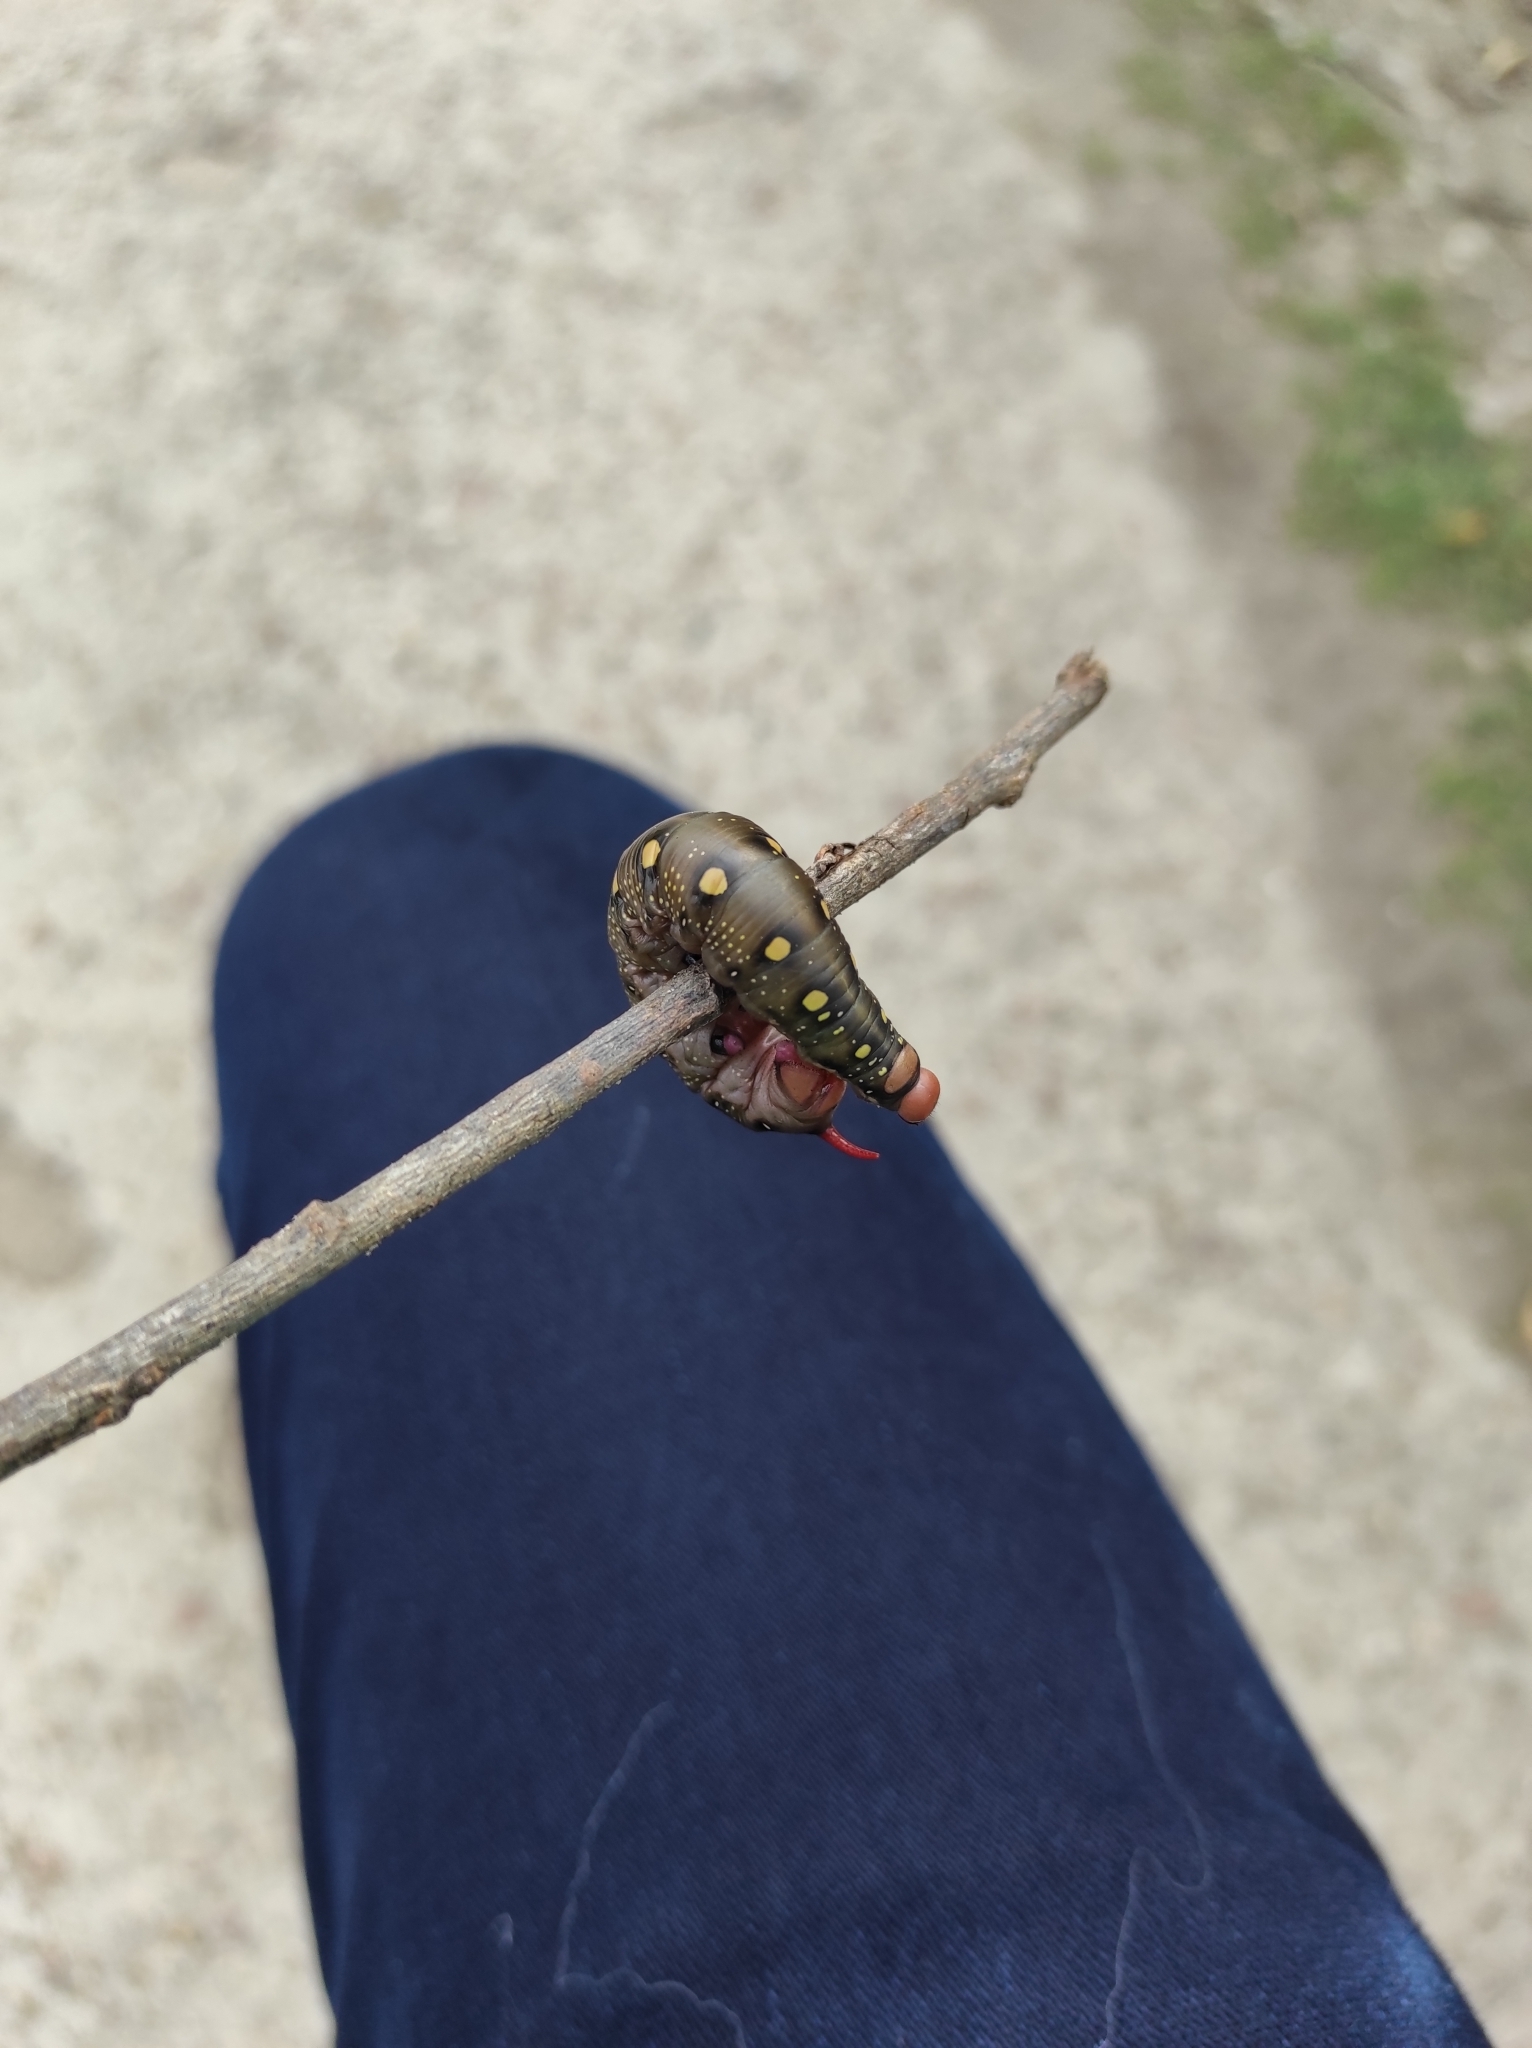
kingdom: Animalia
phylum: Arthropoda
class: Insecta
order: Lepidoptera
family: Sphingidae
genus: Hyles
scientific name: Hyles gallii
